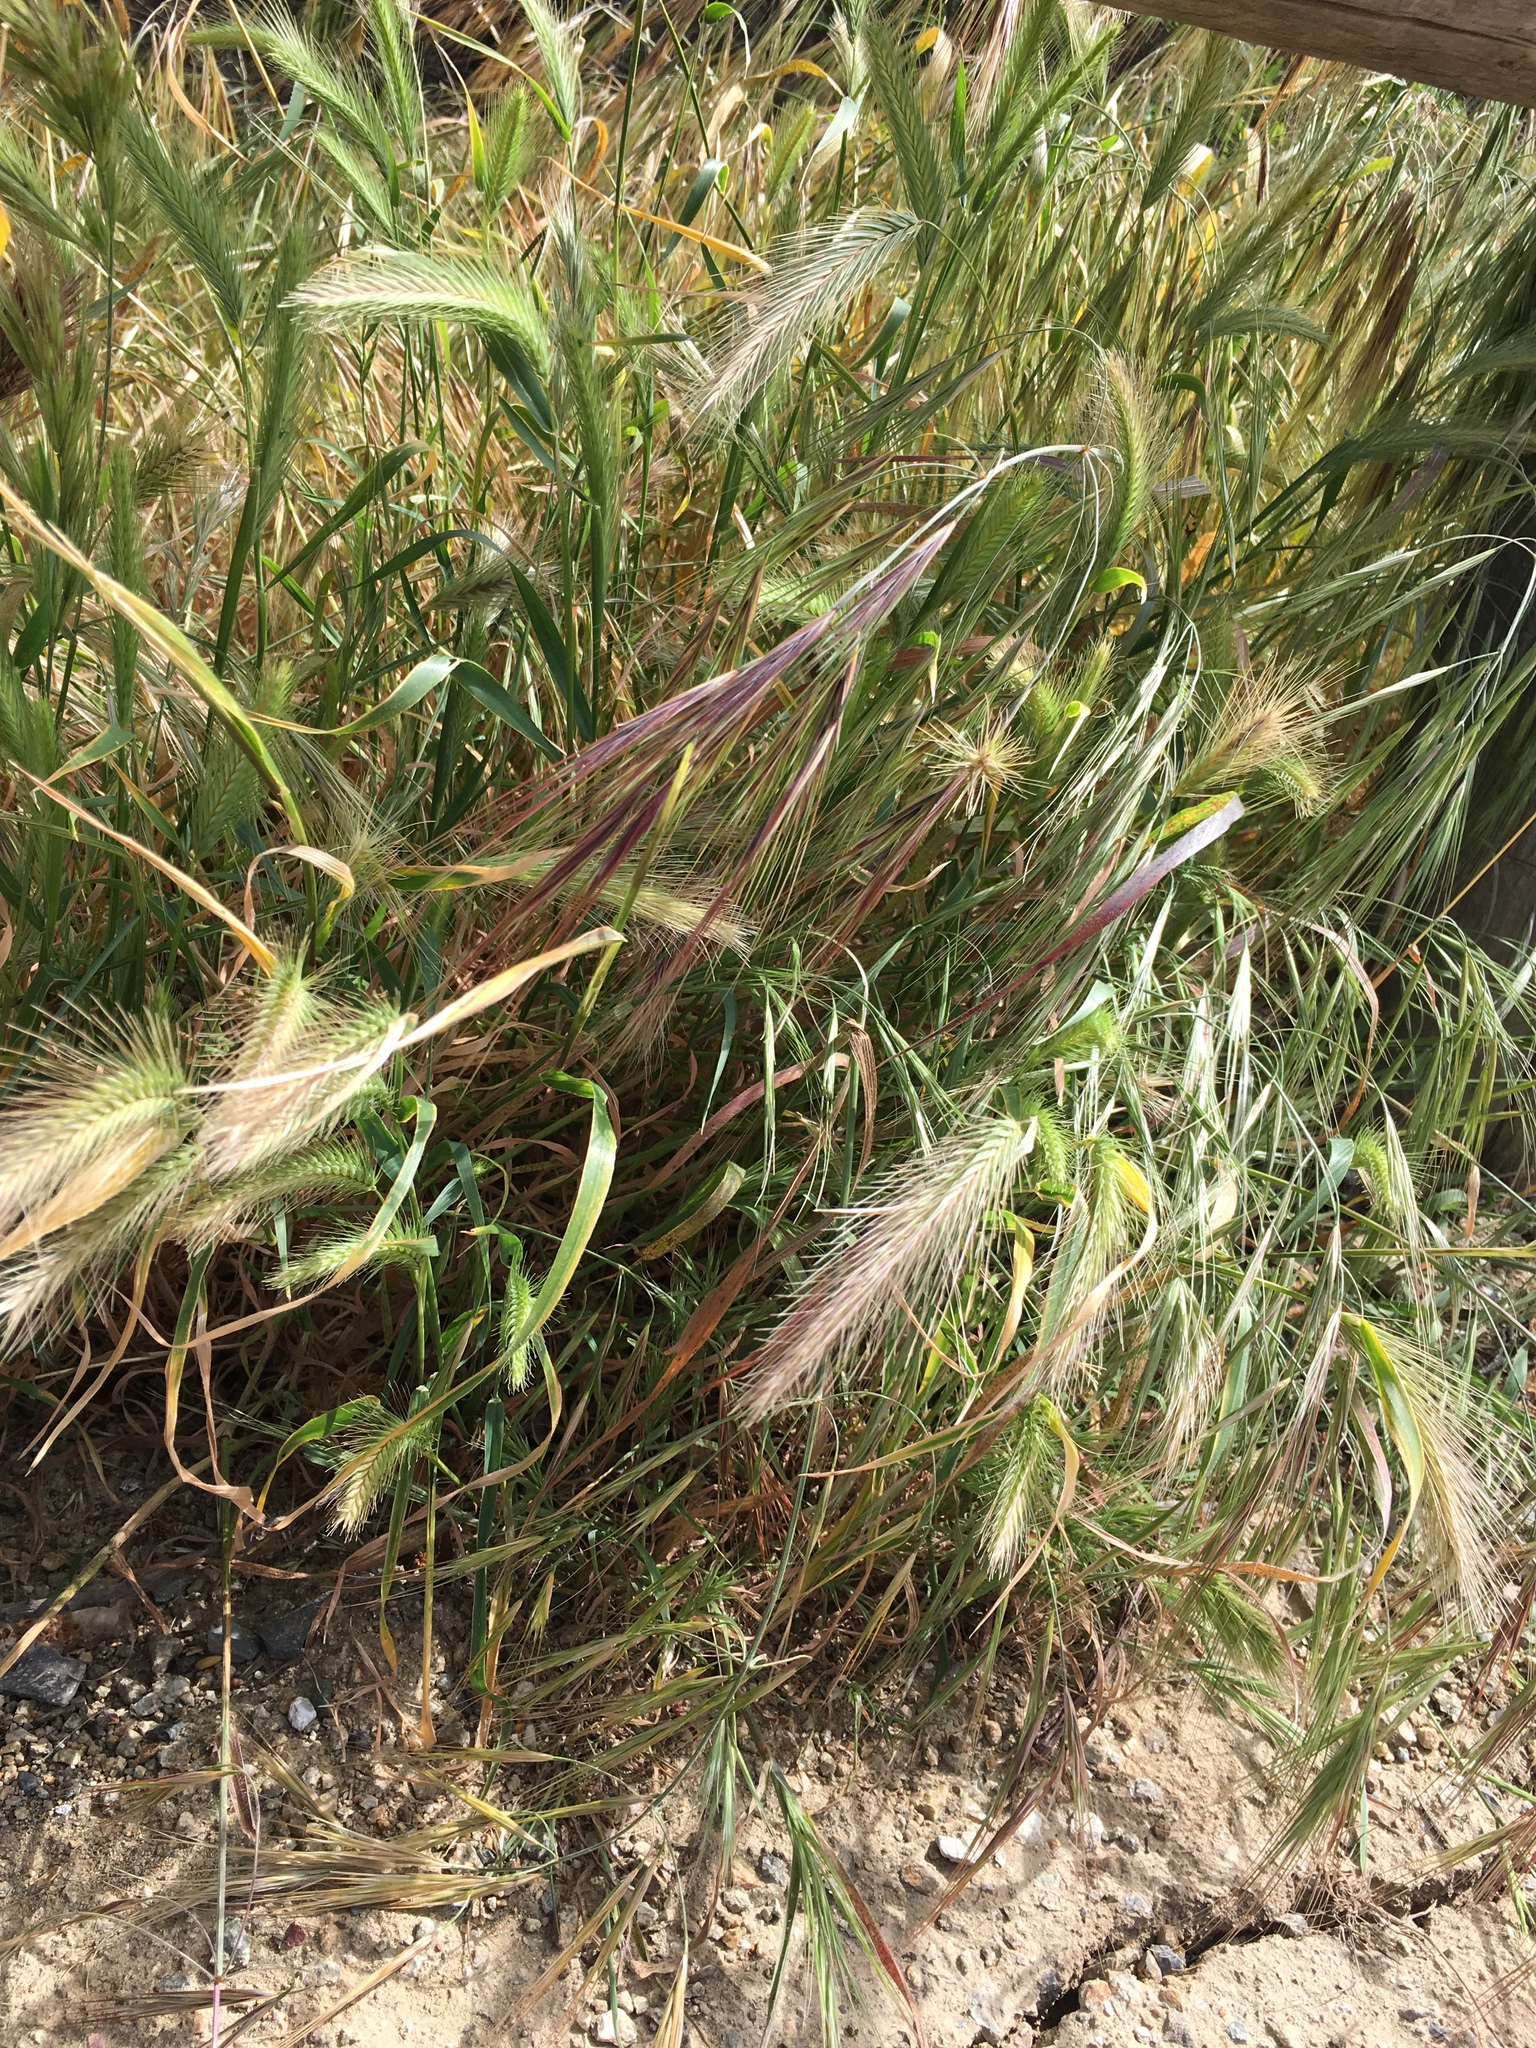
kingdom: Plantae
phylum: Tracheophyta
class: Liliopsida
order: Poales
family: Poaceae
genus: Hordeum
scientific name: Hordeum murinum
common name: Wall barley
